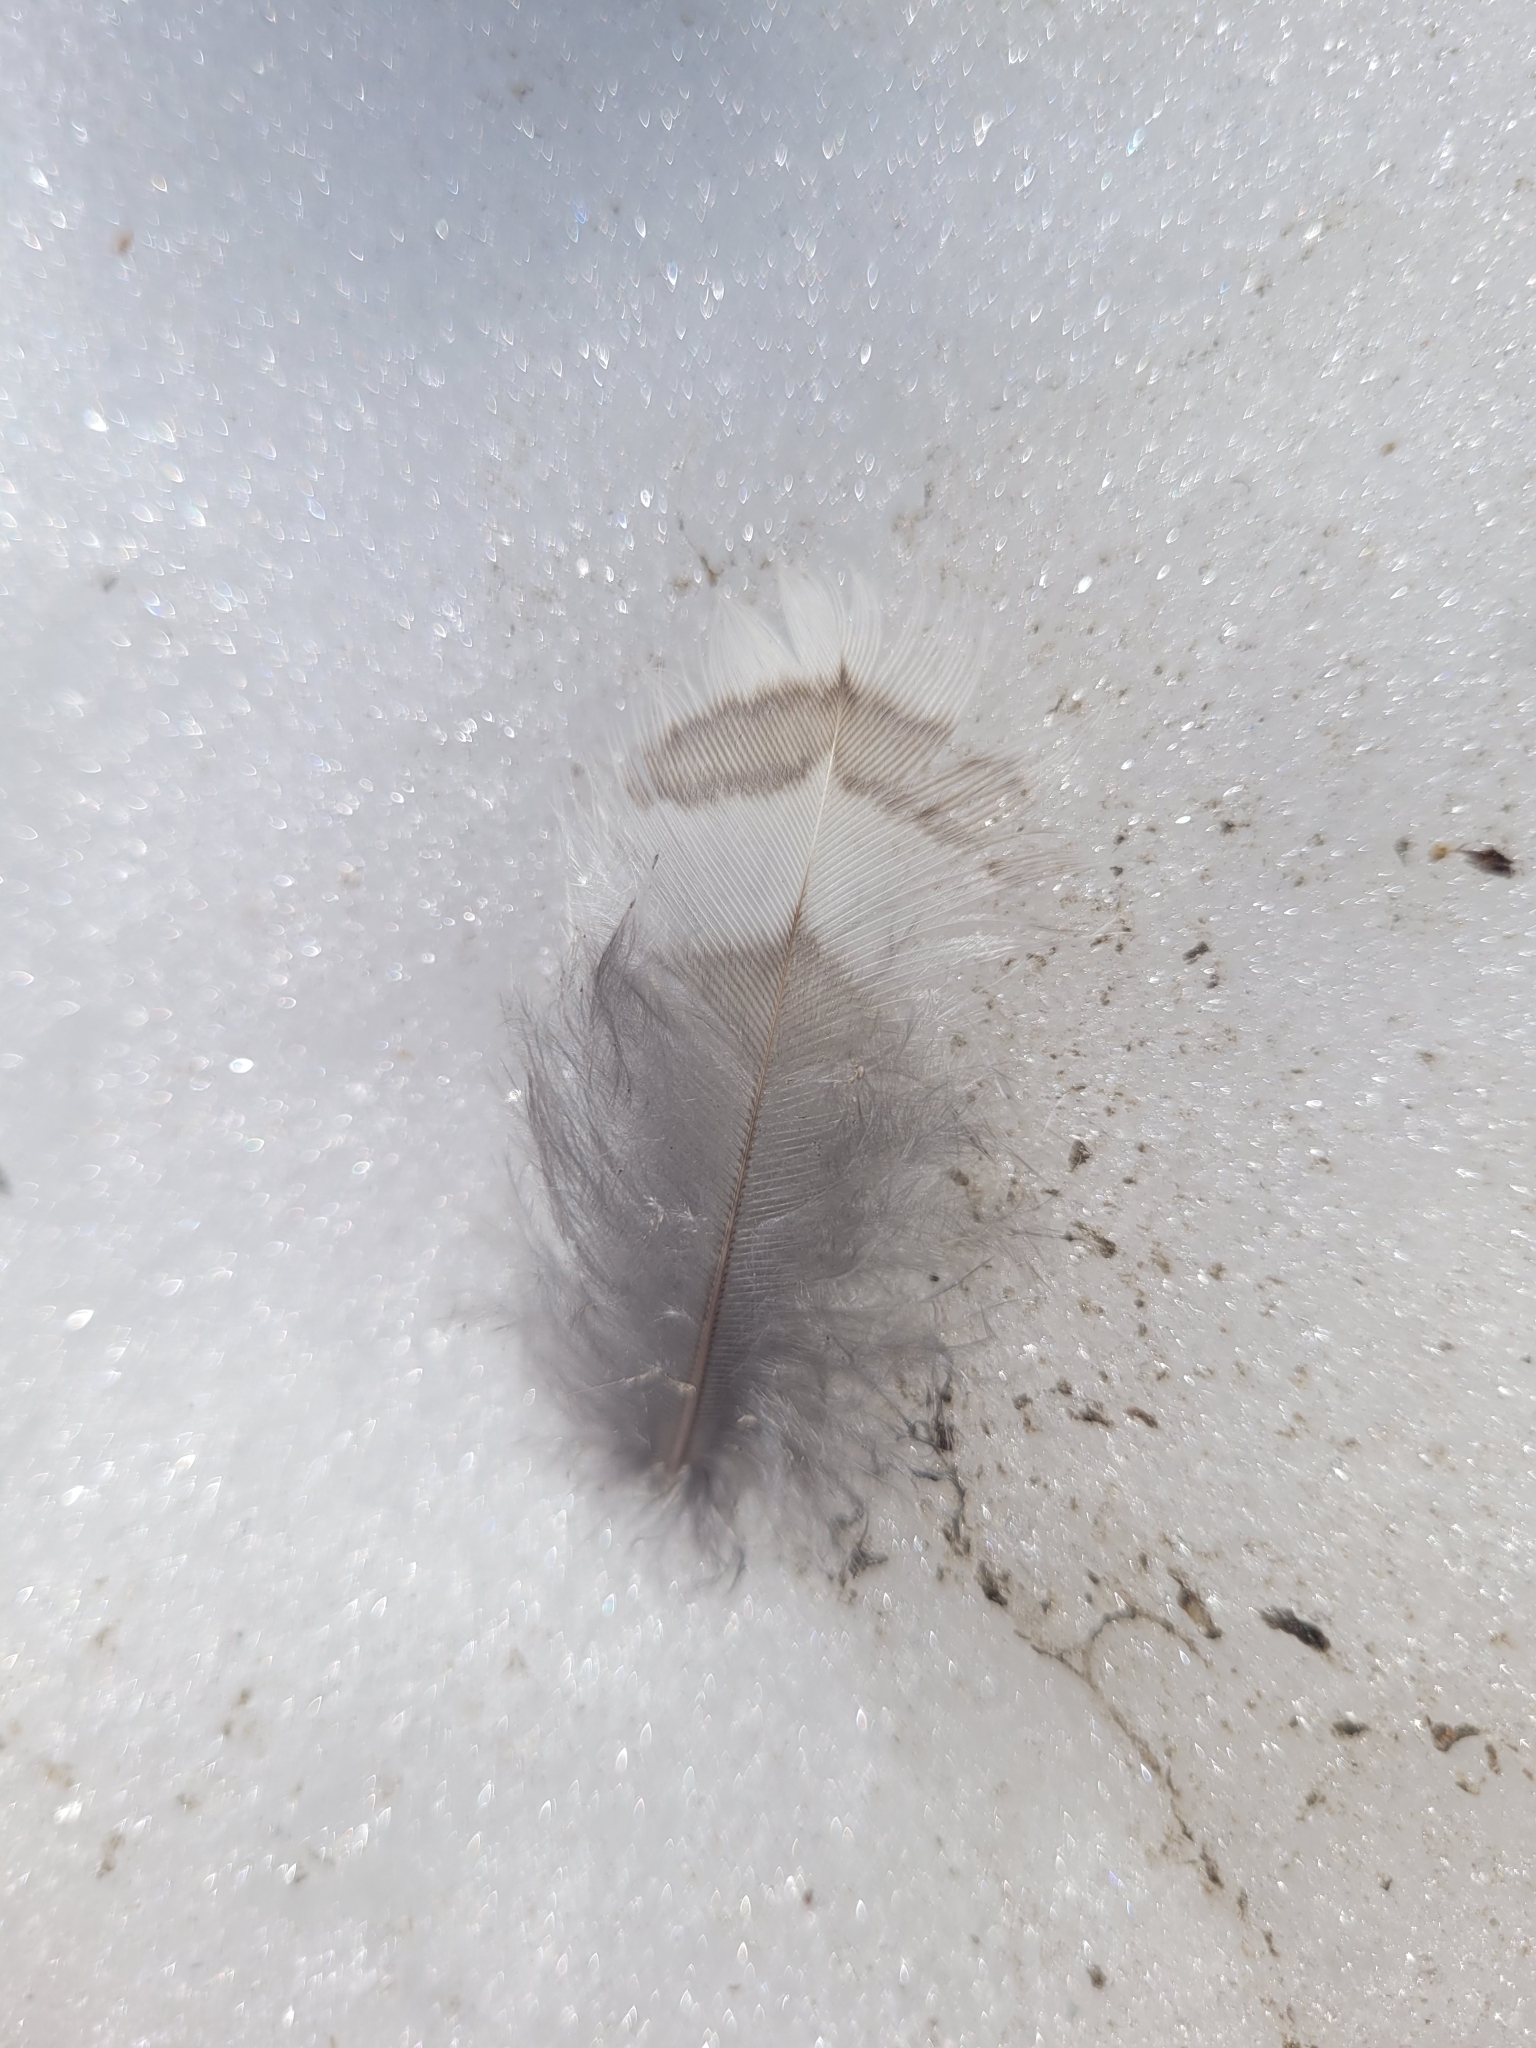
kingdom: Animalia
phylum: Chordata
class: Aves
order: Galliformes
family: Phasianidae
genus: Bonasa
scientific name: Bonasa umbellus
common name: Ruffed grouse
